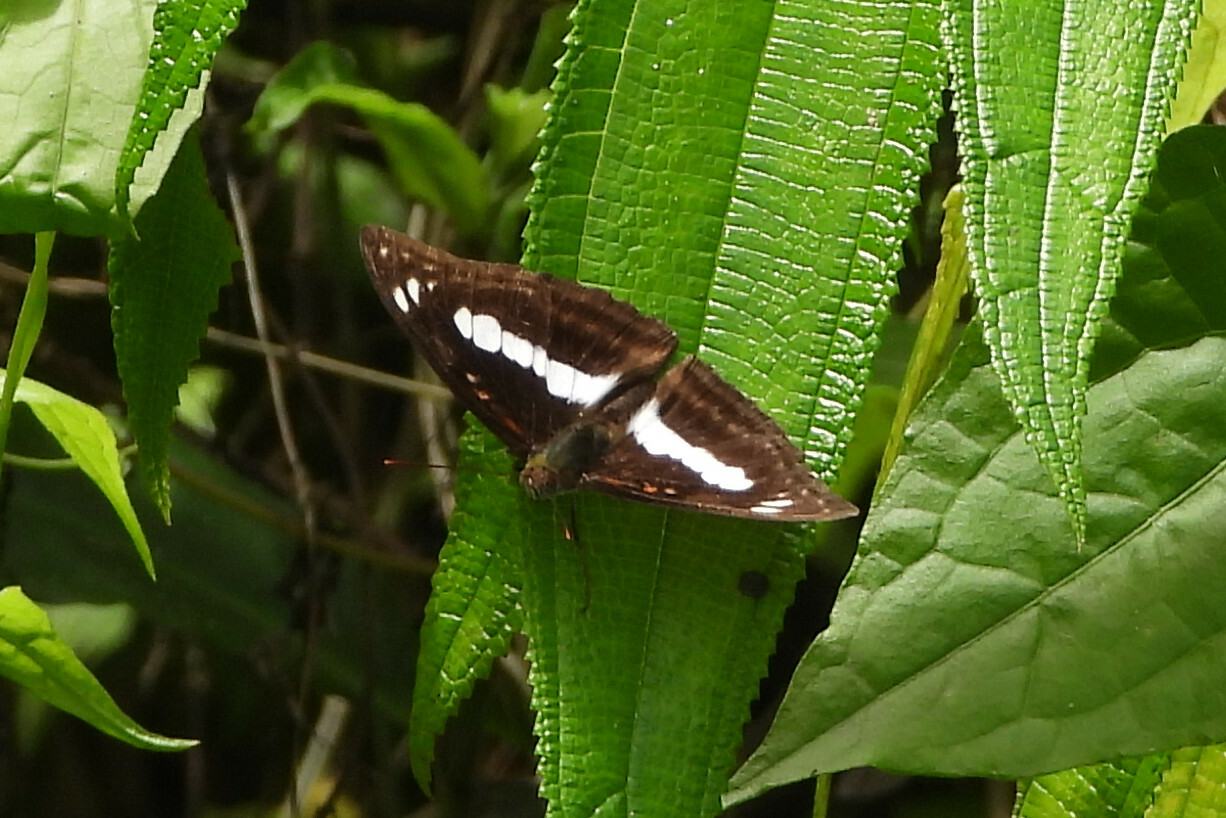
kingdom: Animalia
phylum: Arthropoda
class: Insecta
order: Lepidoptera
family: Nymphalidae
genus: Parathyma
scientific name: Parathyma selenophora
